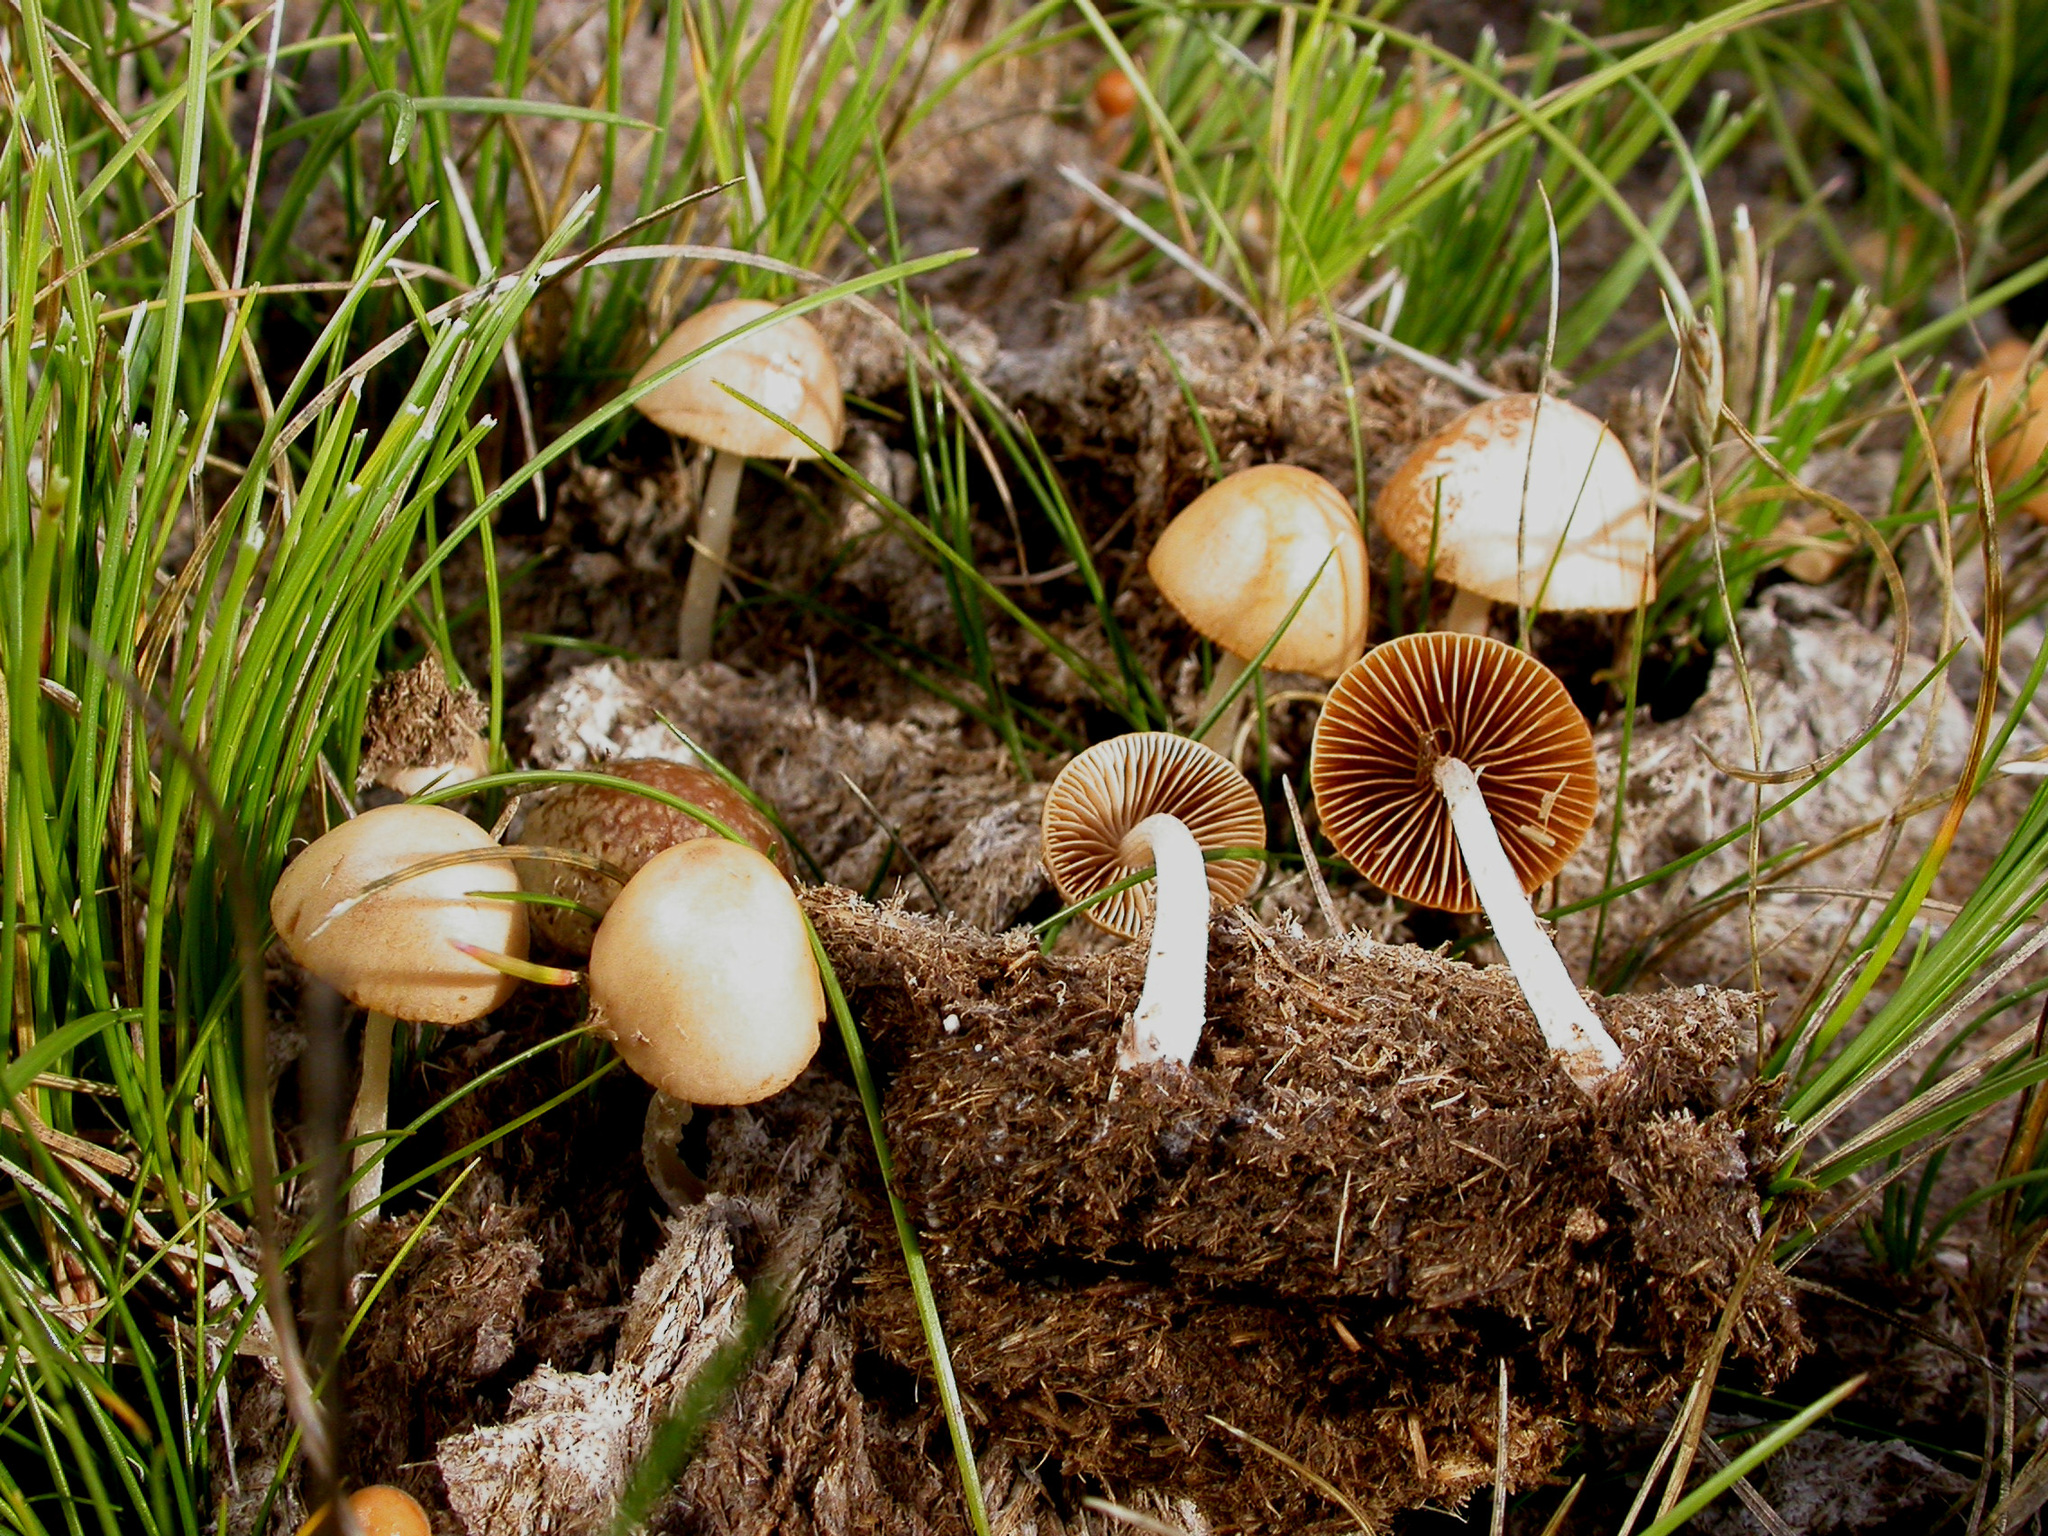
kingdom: Fungi
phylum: Basidiomycota
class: Agaricomycetes
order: Agaricales
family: Bolbitiaceae
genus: Conocybe
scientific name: Conocybe coprophila
